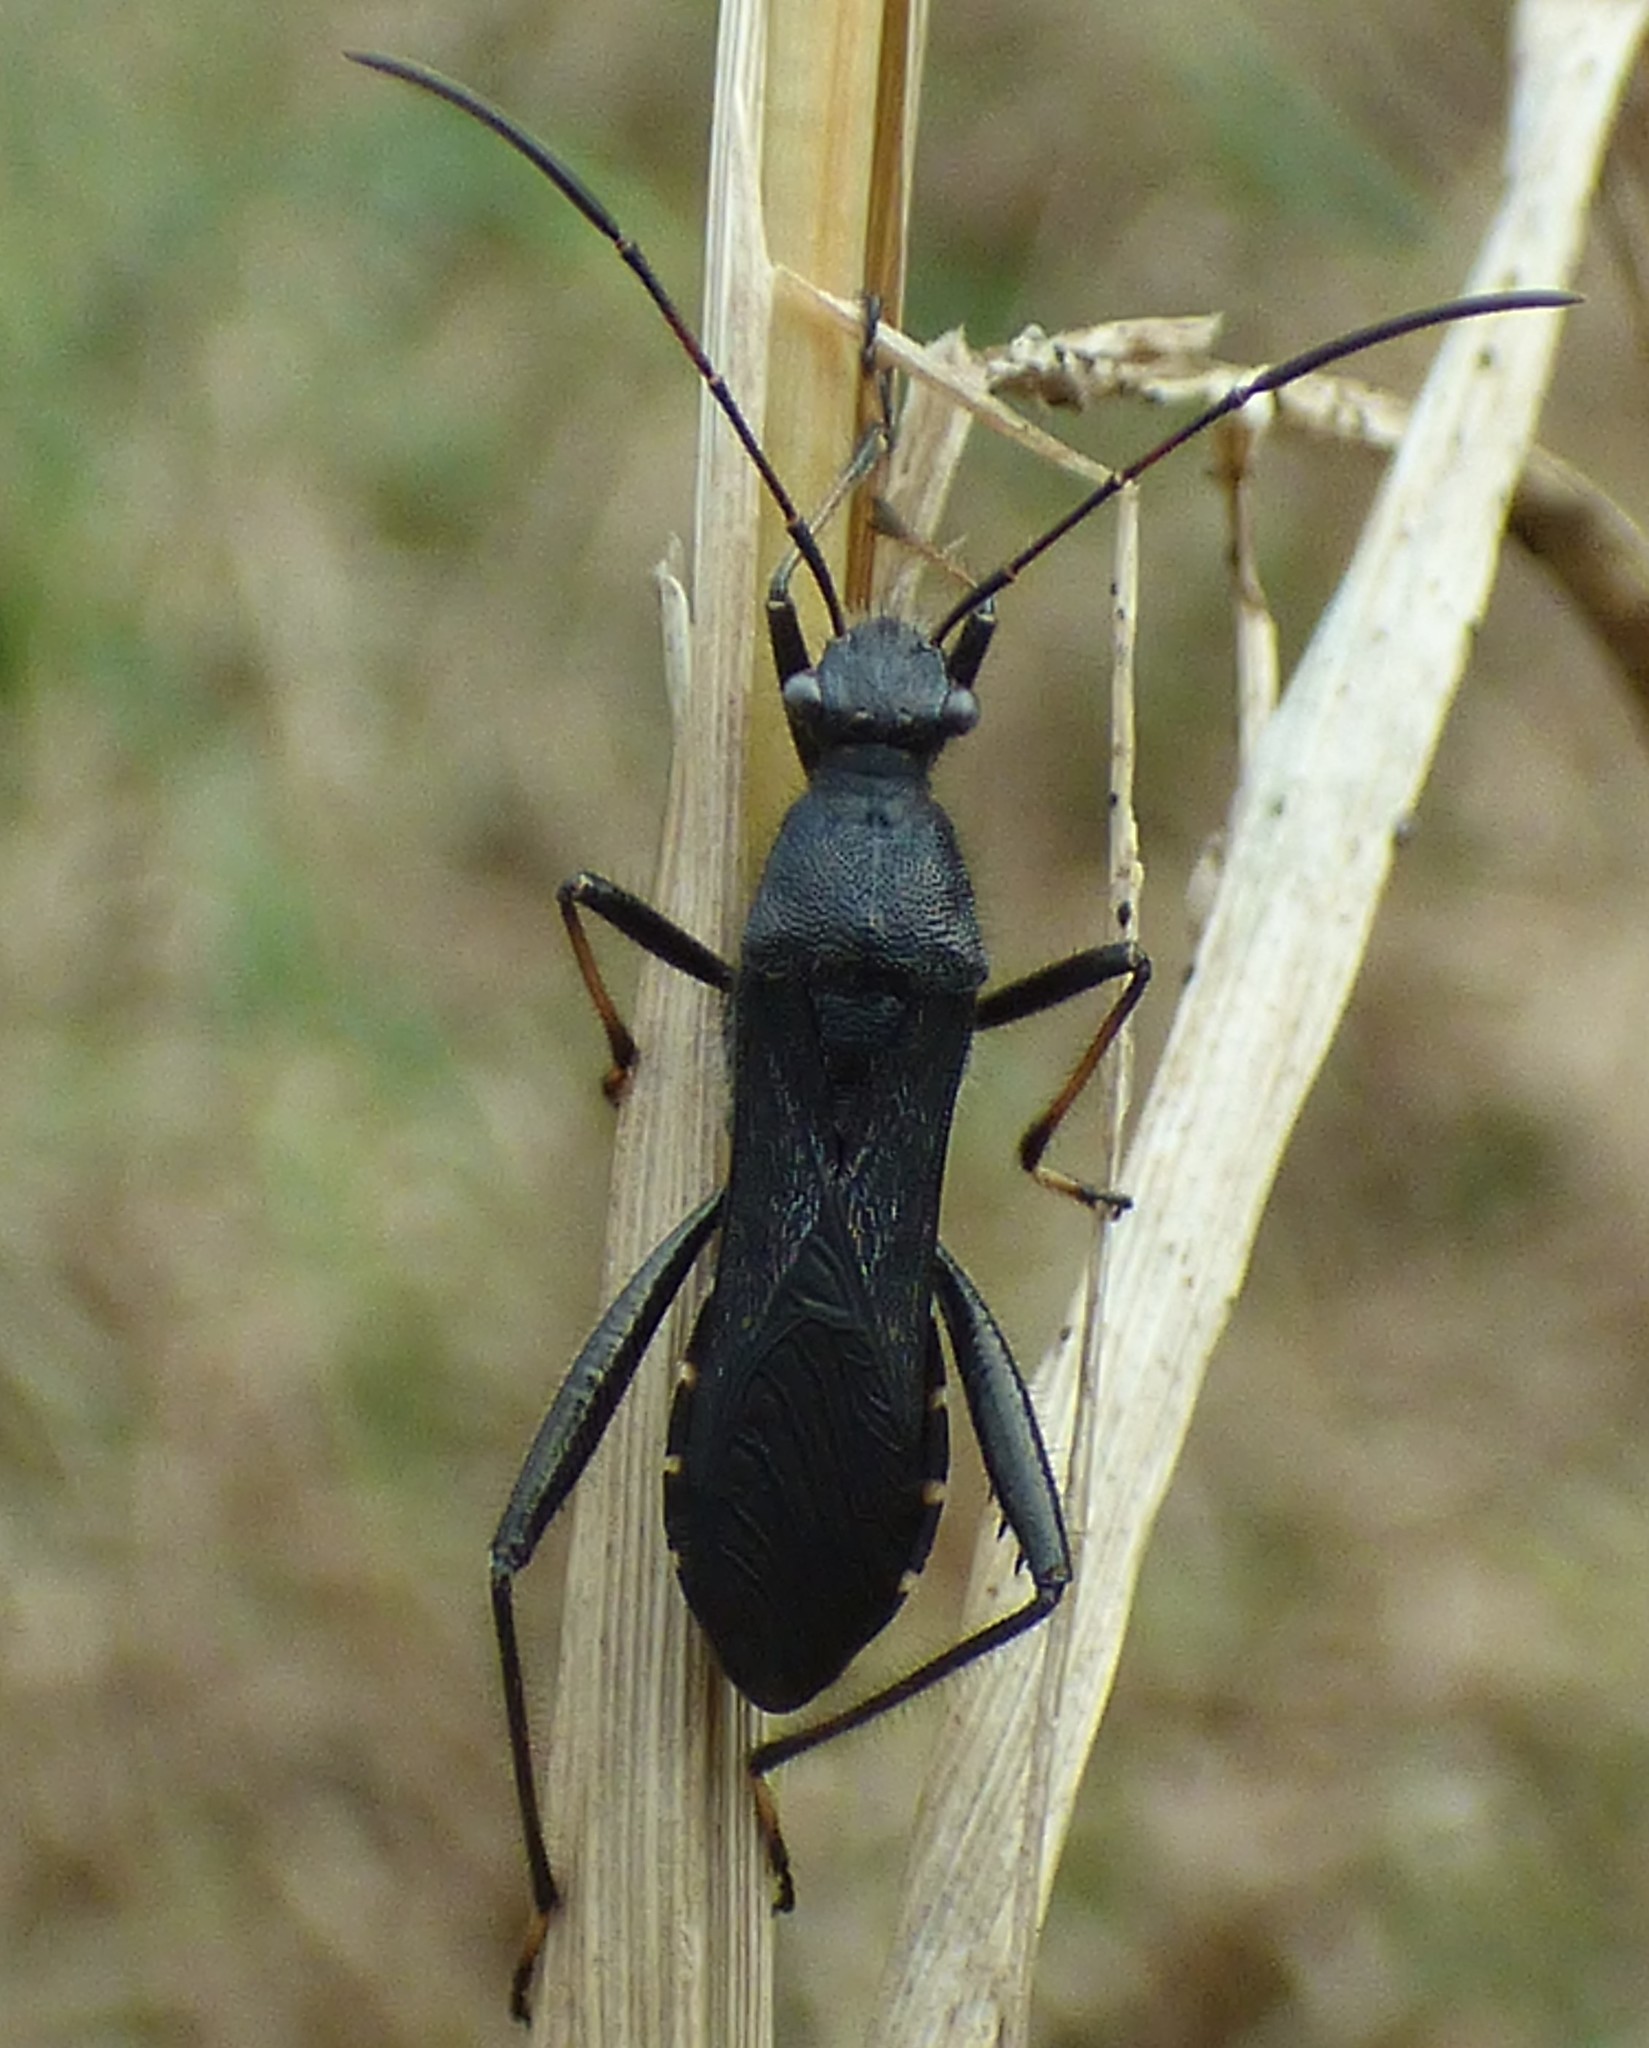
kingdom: Animalia
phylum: Arthropoda
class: Insecta
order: Hemiptera
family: Alydidae
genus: Alydus
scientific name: Alydus eurinus
